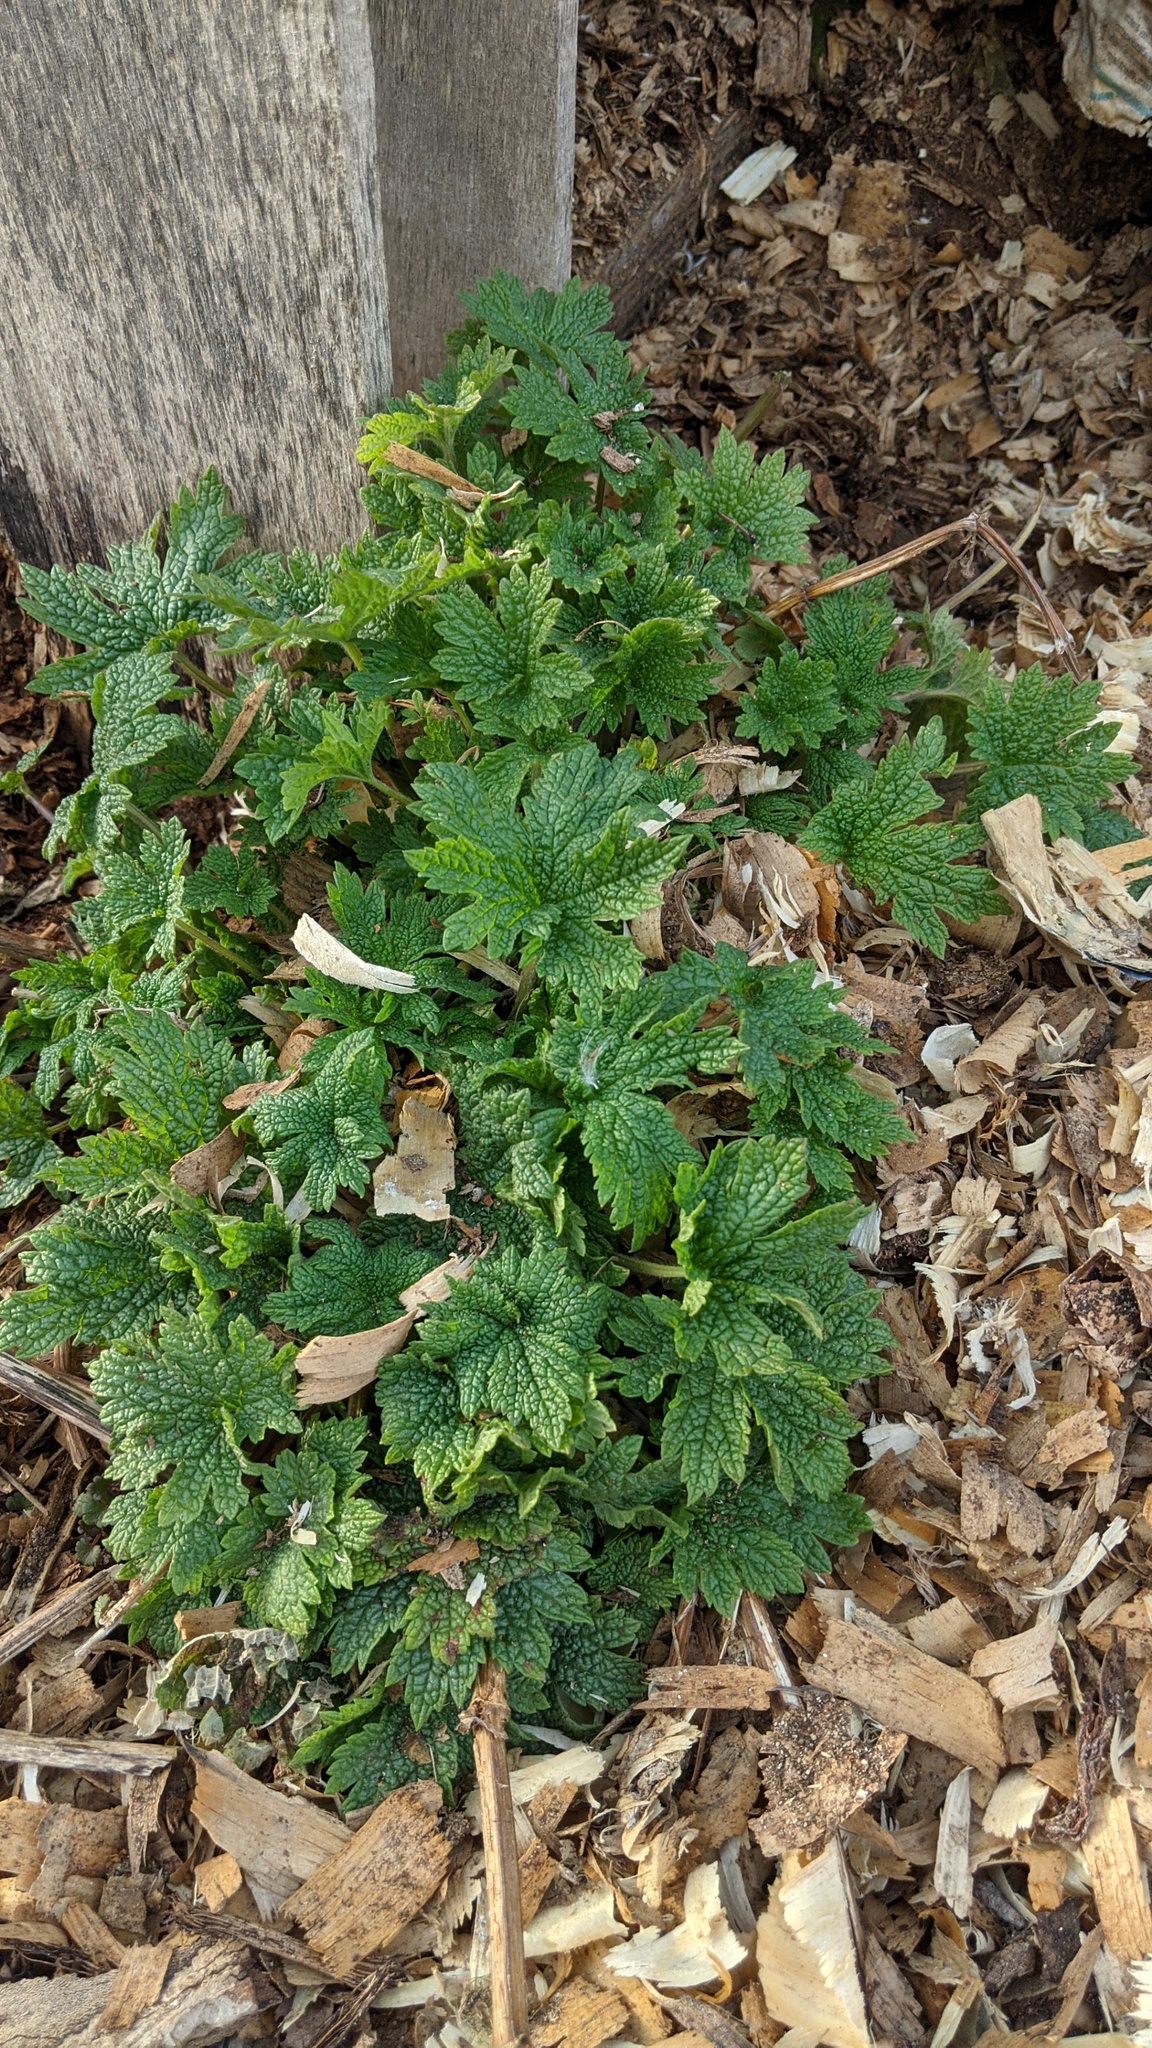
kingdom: Plantae
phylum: Tracheophyta
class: Magnoliopsida
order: Lamiales
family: Lamiaceae
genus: Leonurus
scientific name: Leonurus cardiaca
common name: Motherwort
